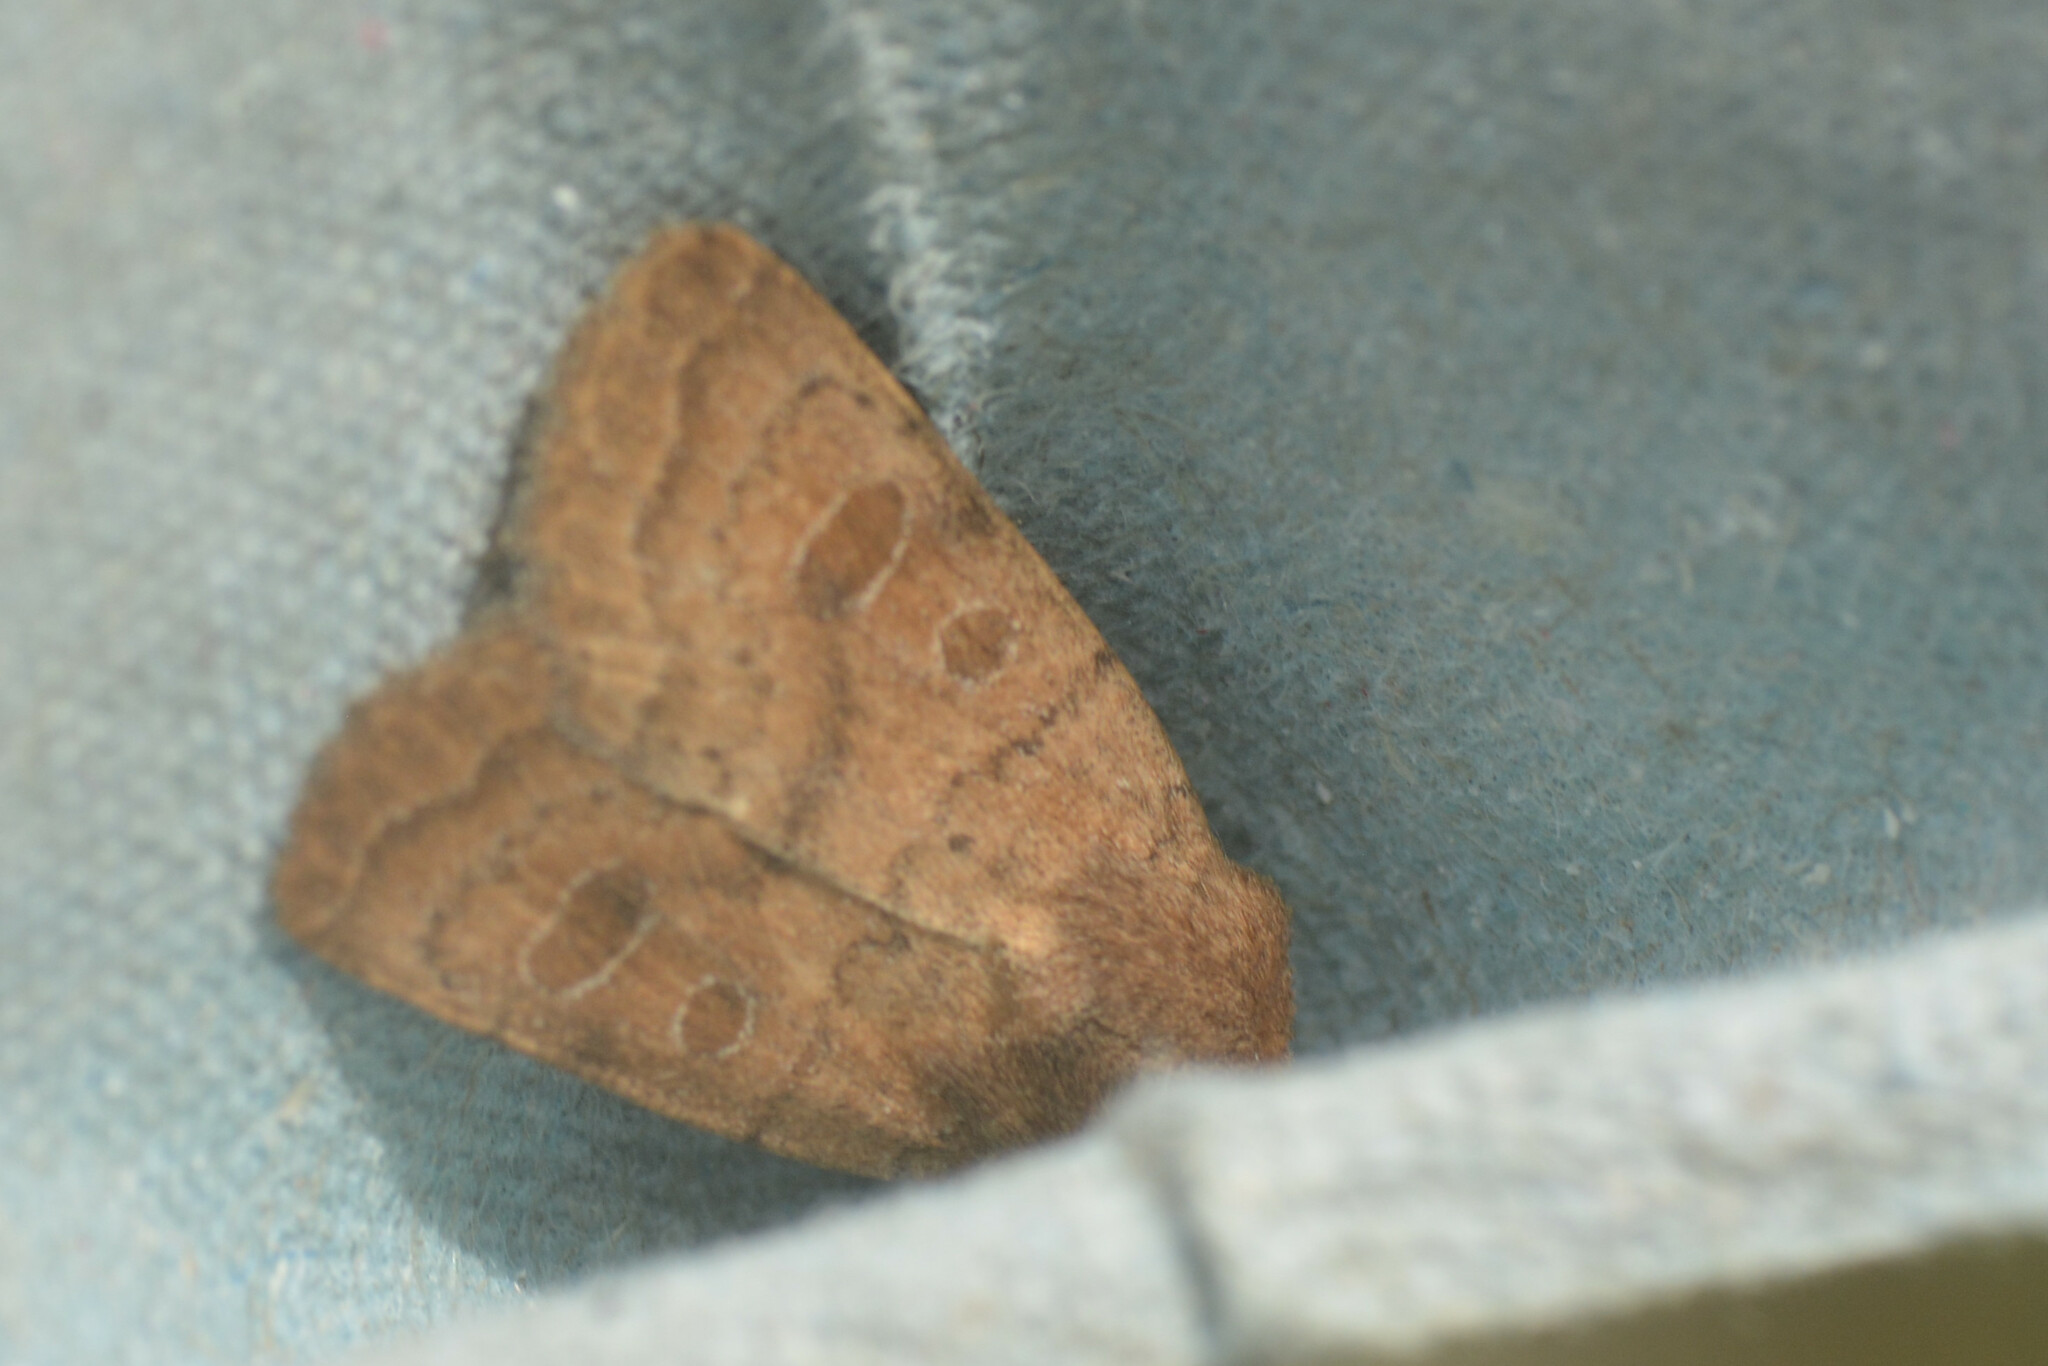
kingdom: Animalia
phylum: Arthropoda
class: Insecta
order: Lepidoptera
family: Noctuidae
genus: Hoplodrina
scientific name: Hoplodrina octogenaria
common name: Uncertain
